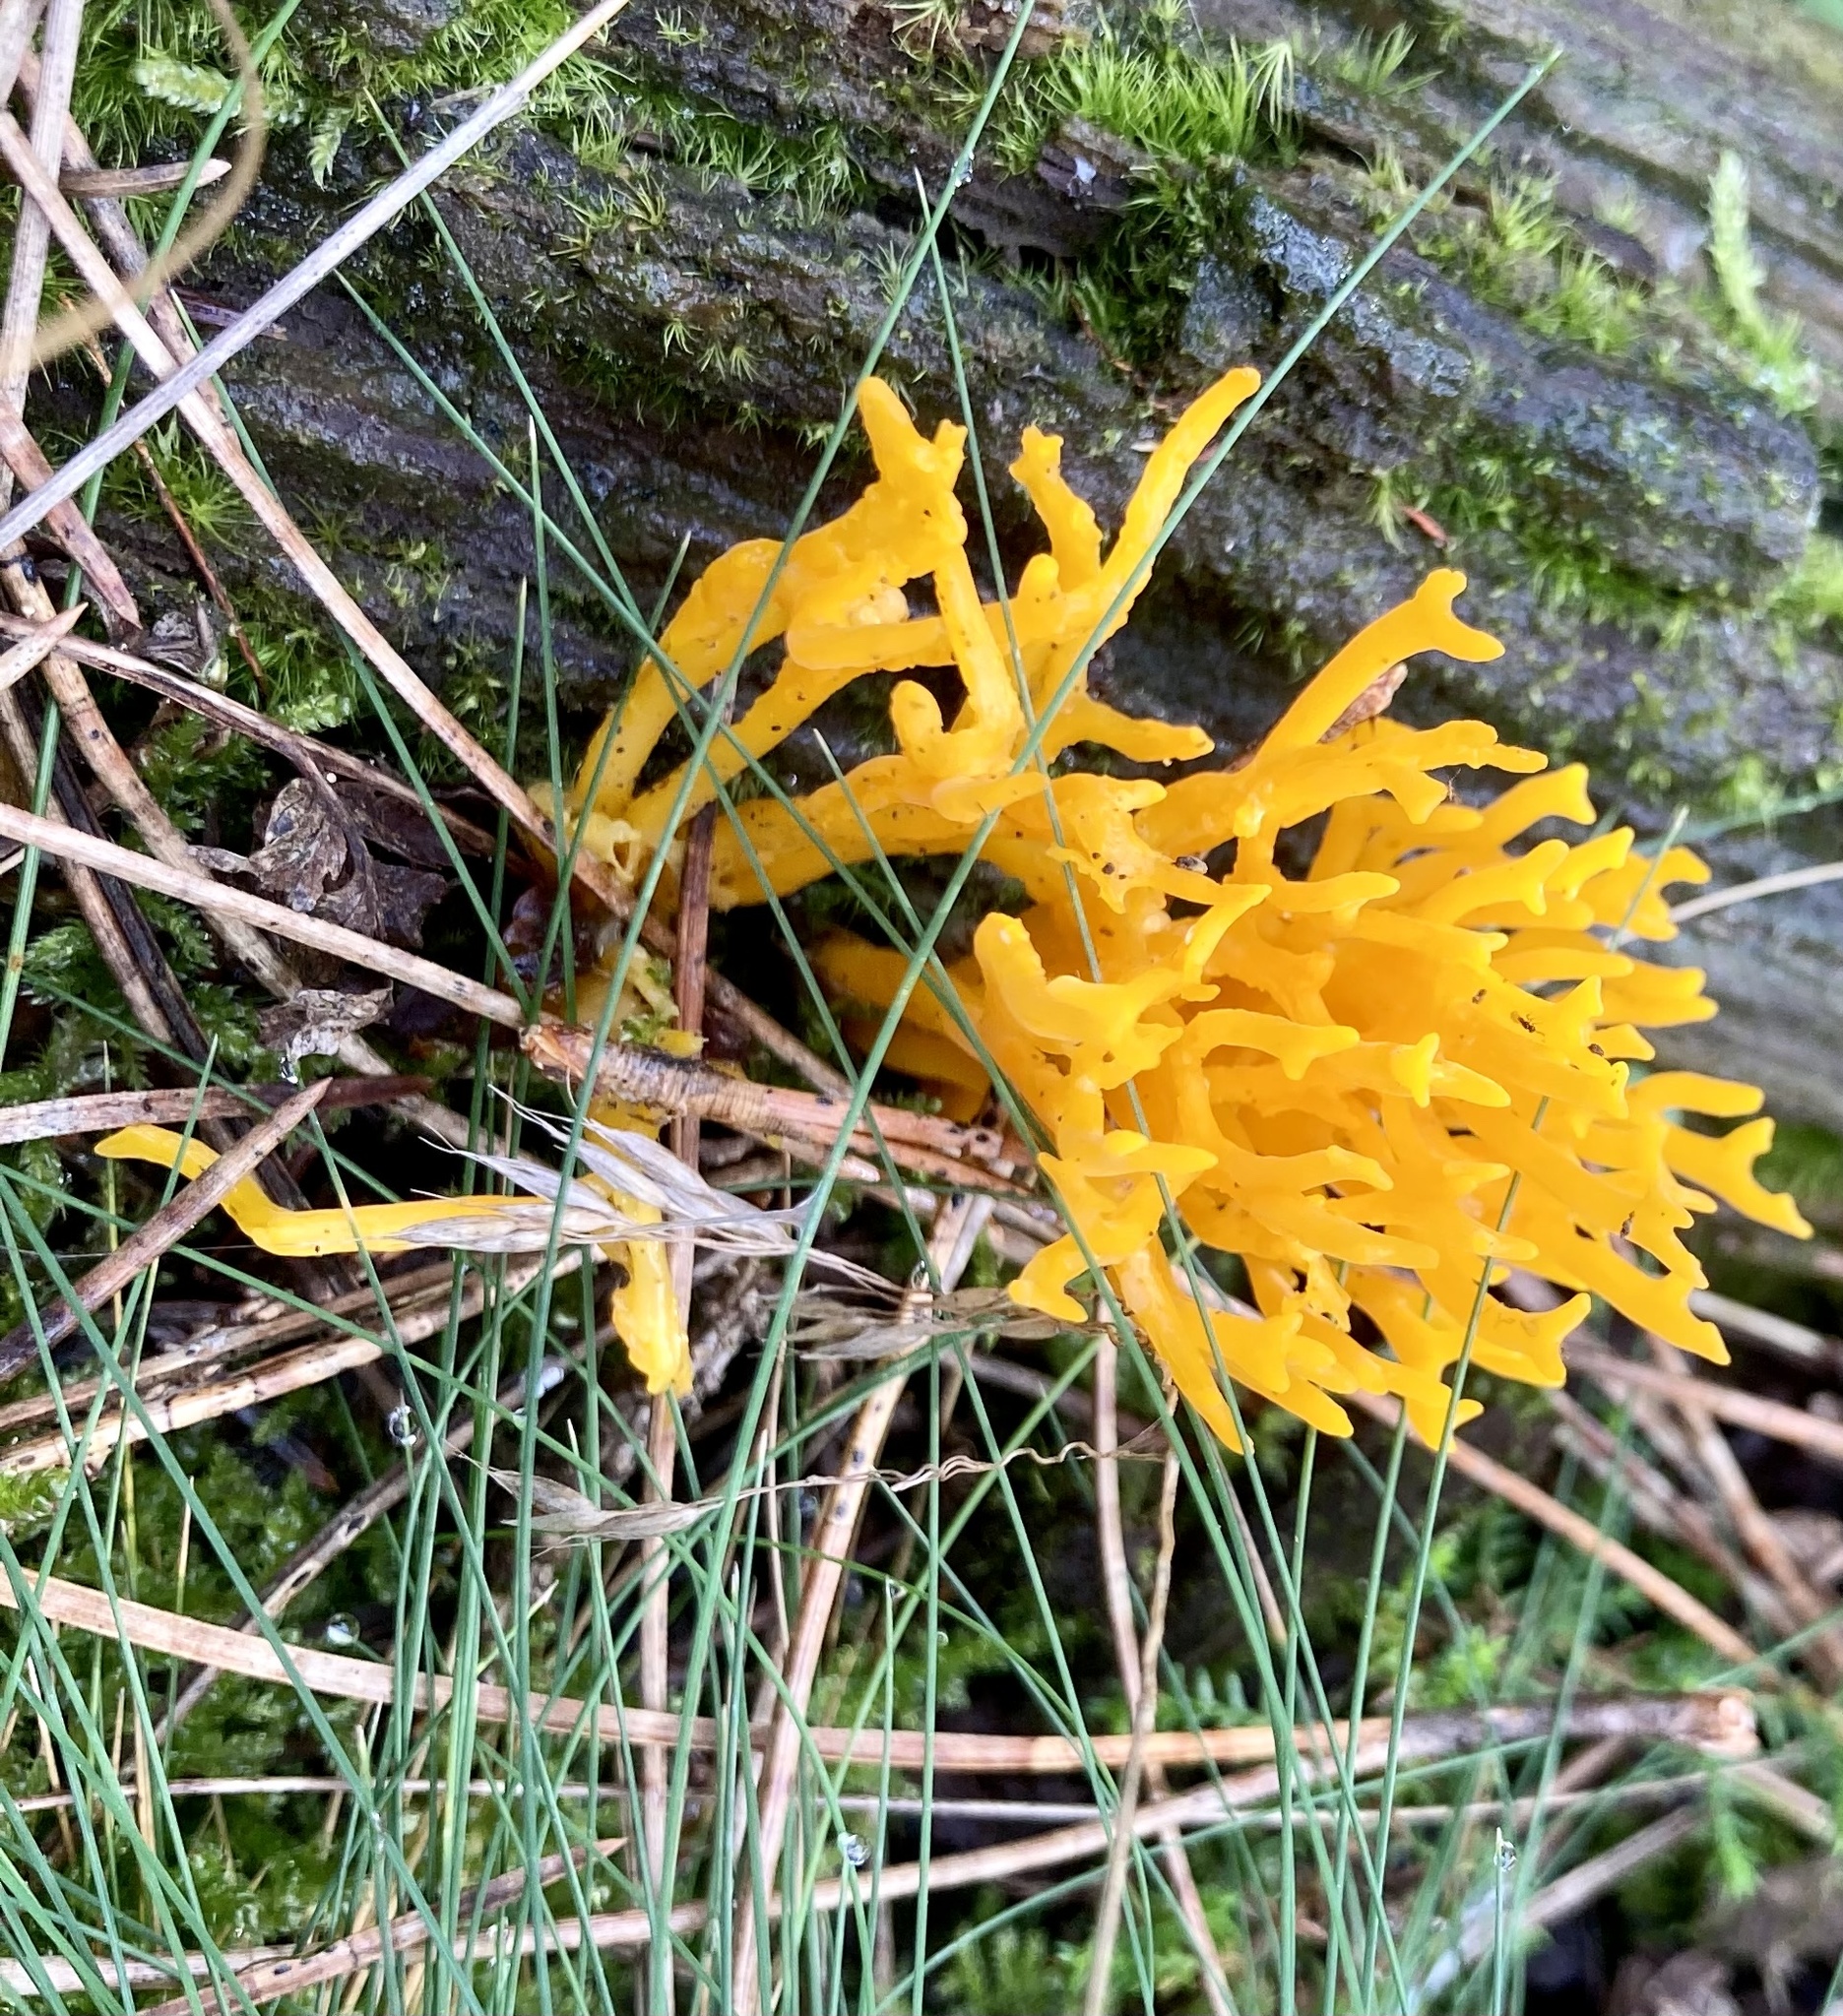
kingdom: Fungi
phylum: Basidiomycota
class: Dacrymycetes
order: Dacrymycetales
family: Dacrymycetaceae
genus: Calocera
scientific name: Calocera viscosa
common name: Yellow stagshorn
